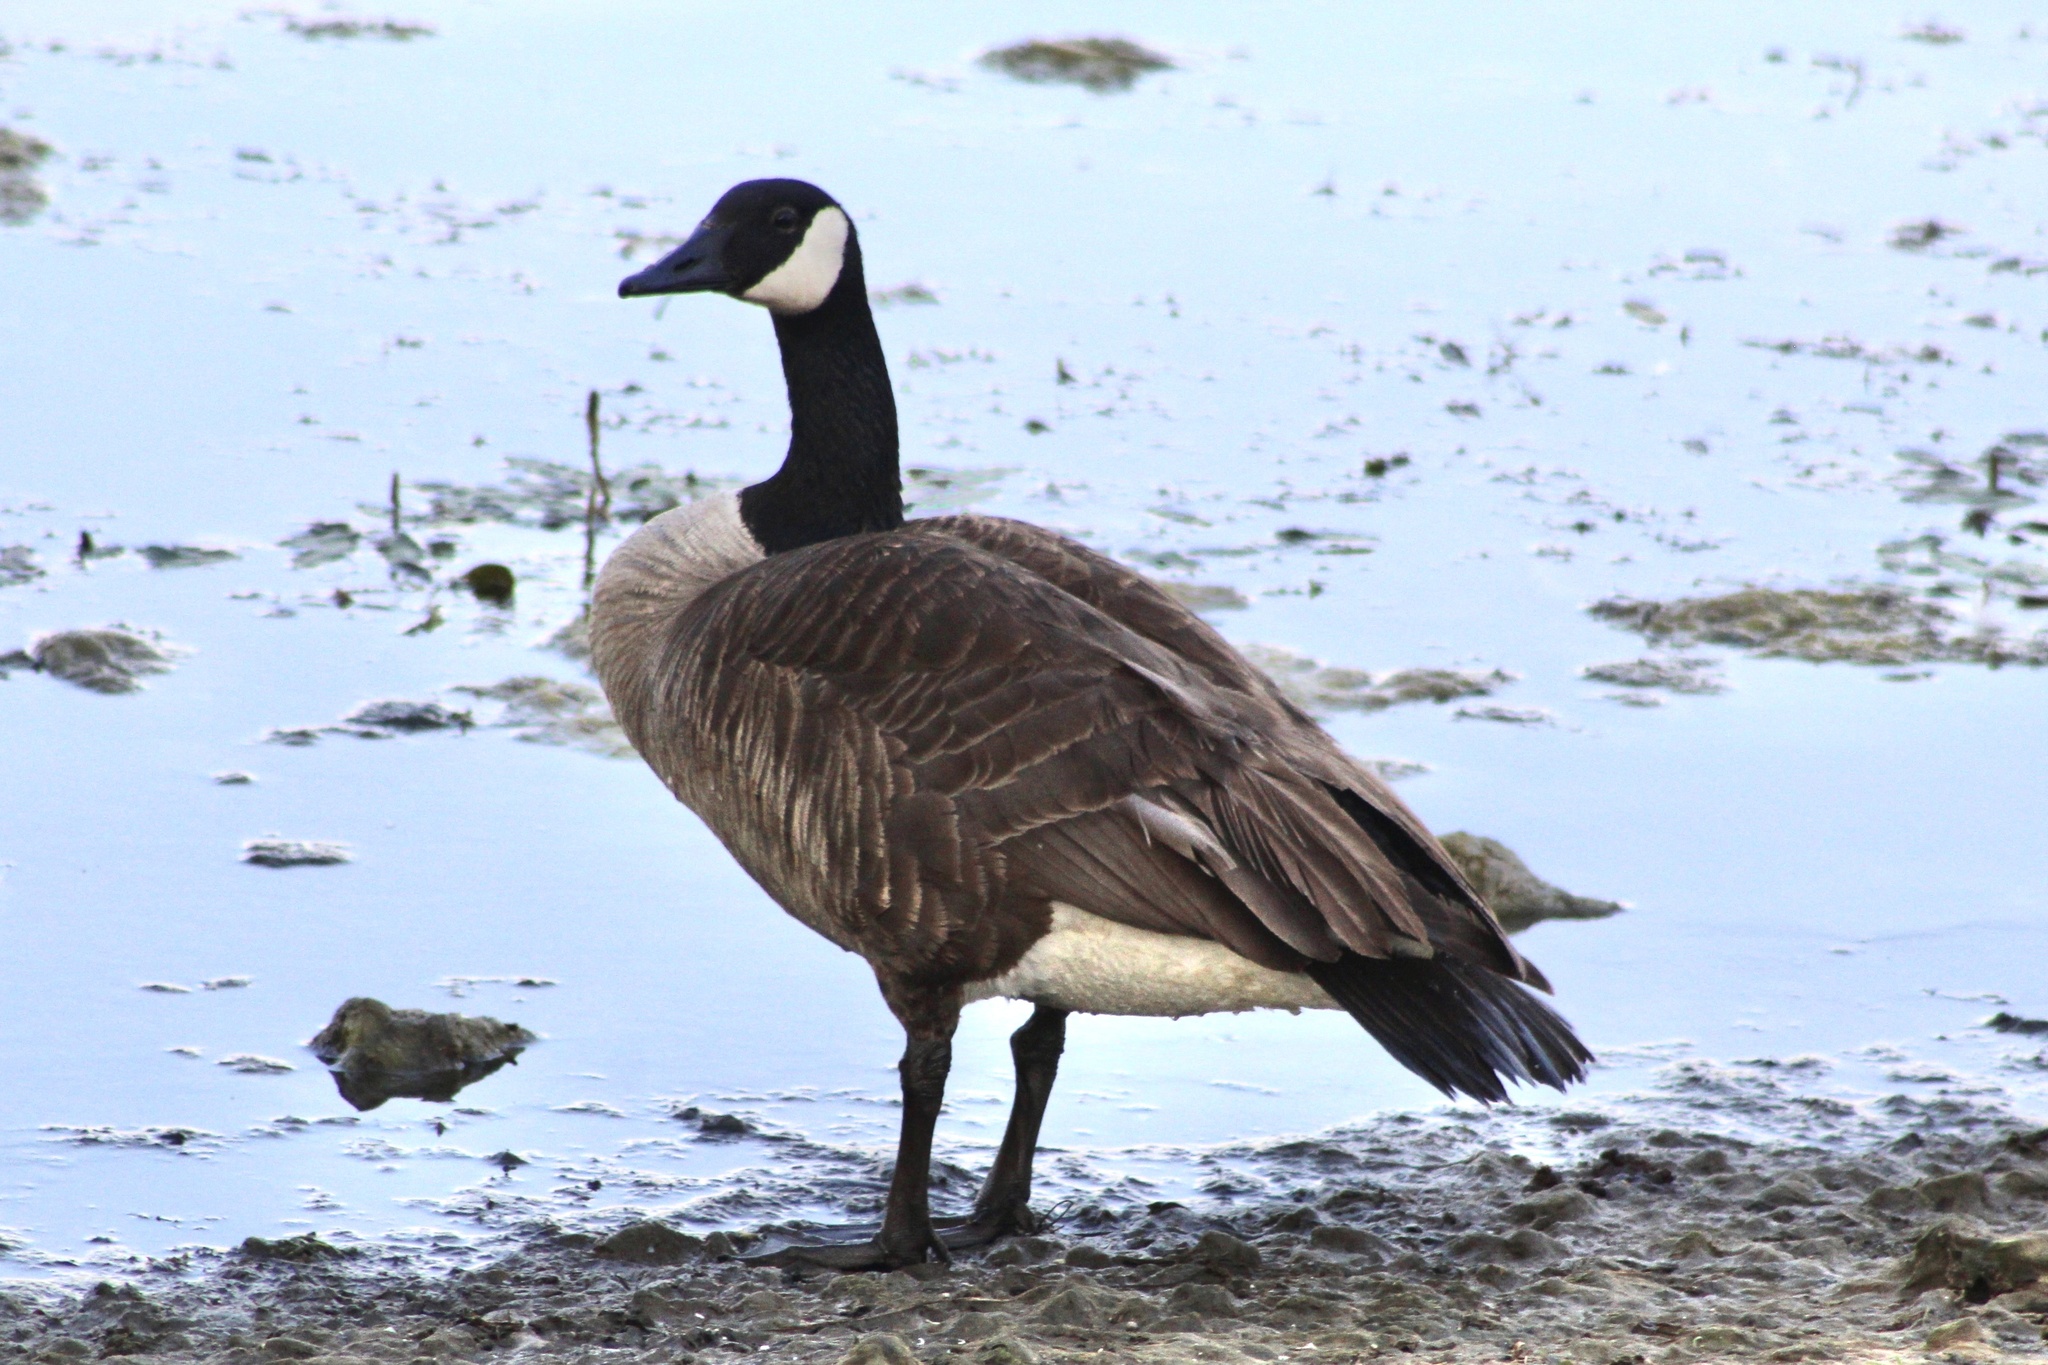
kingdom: Animalia
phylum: Chordata
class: Aves
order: Anseriformes
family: Anatidae
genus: Branta
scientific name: Branta canadensis
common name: Canada goose
